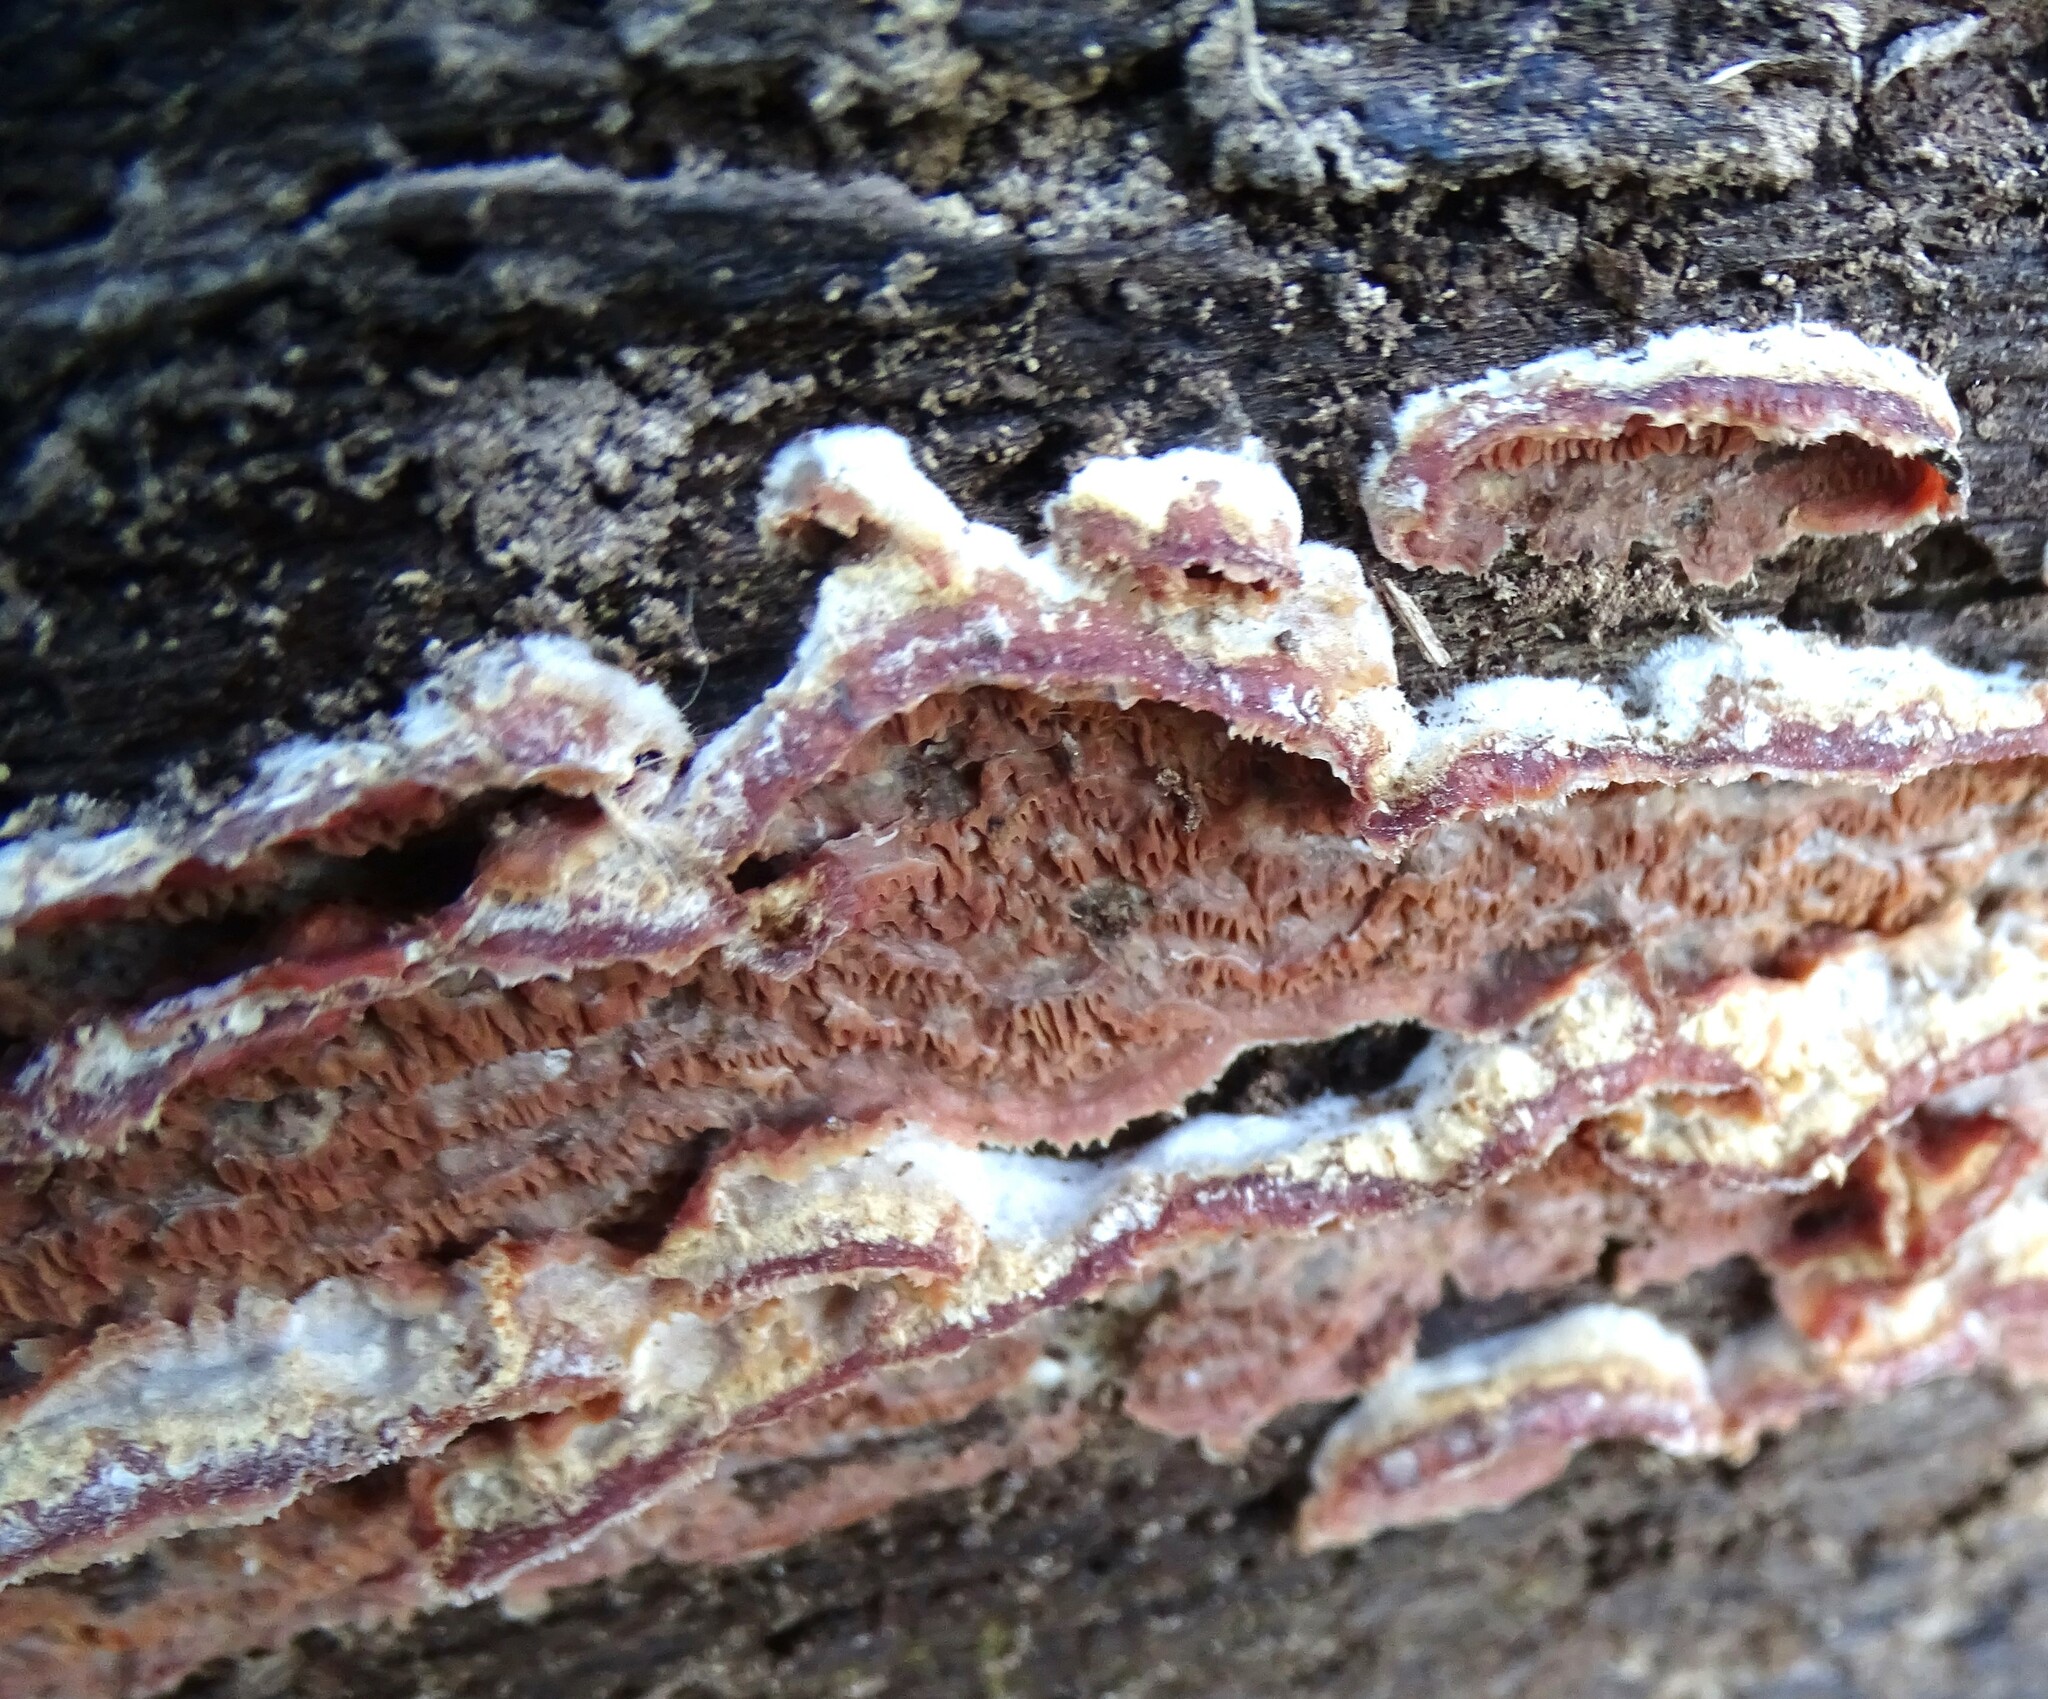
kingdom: Fungi
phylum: Basidiomycota
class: Agaricomycetes
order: Polyporales
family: Meruliaceae
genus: Phlebia
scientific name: Phlebia tremellosa
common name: Jelly rot
